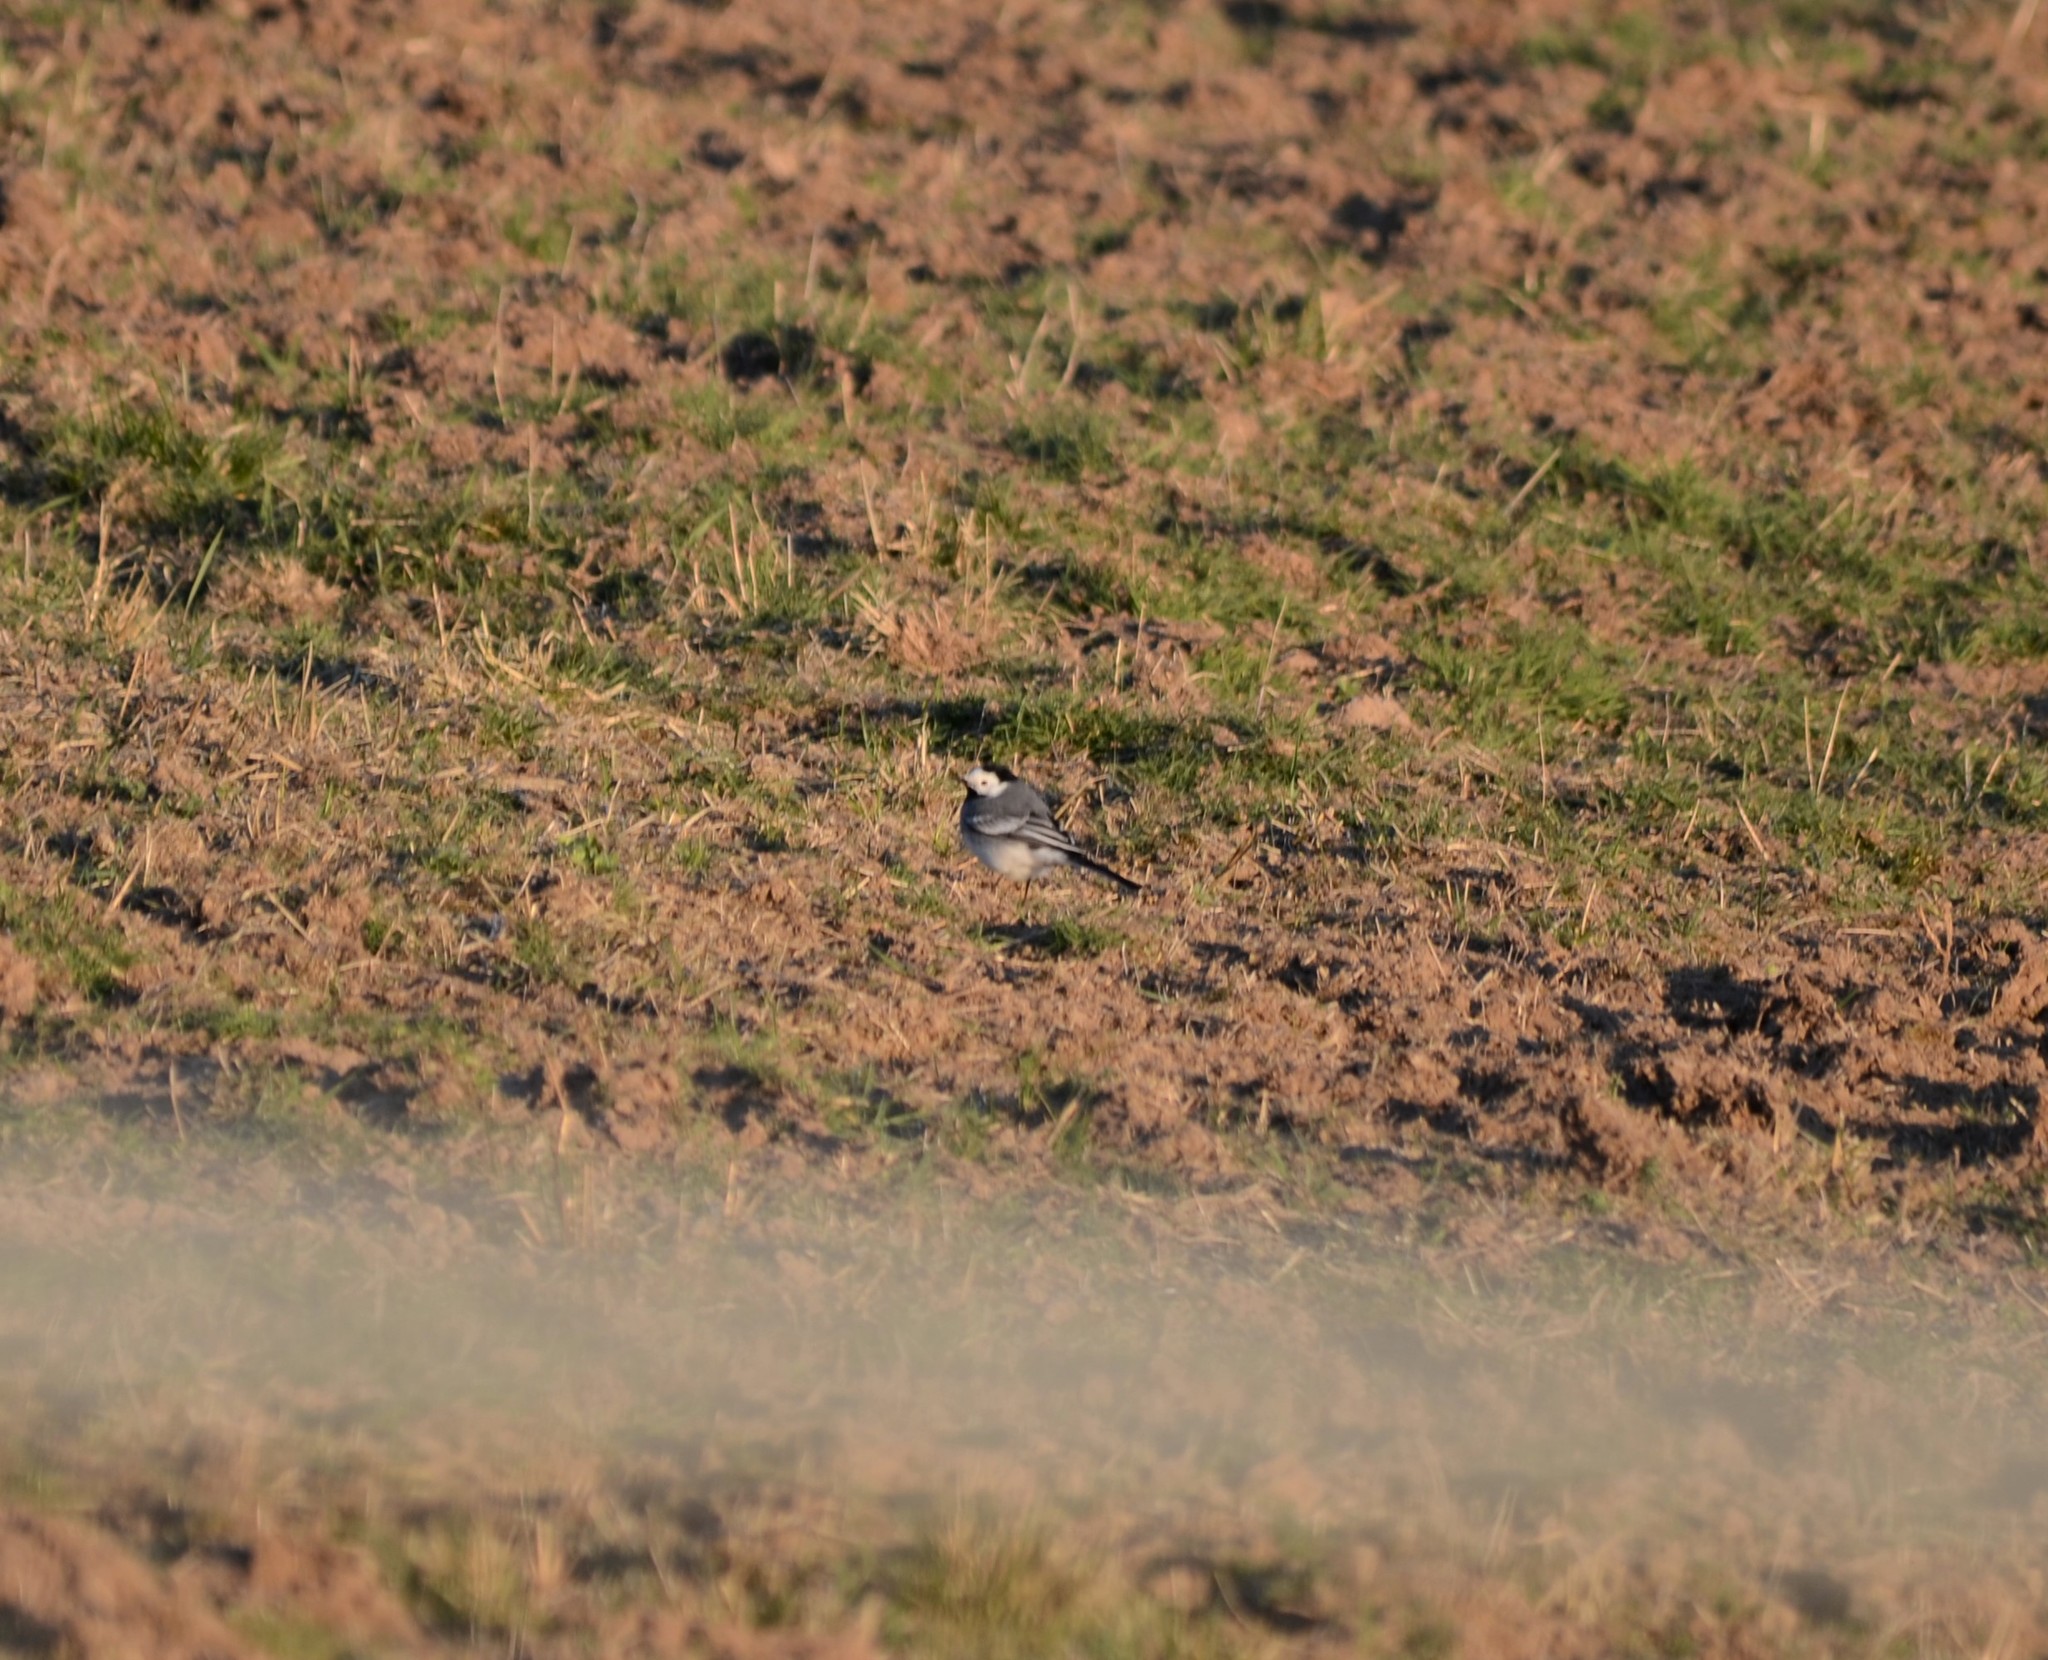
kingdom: Animalia
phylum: Chordata
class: Aves
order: Passeriformes
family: Motacillidae
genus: Motacilla
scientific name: Motacilla alba
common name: White wagtail
